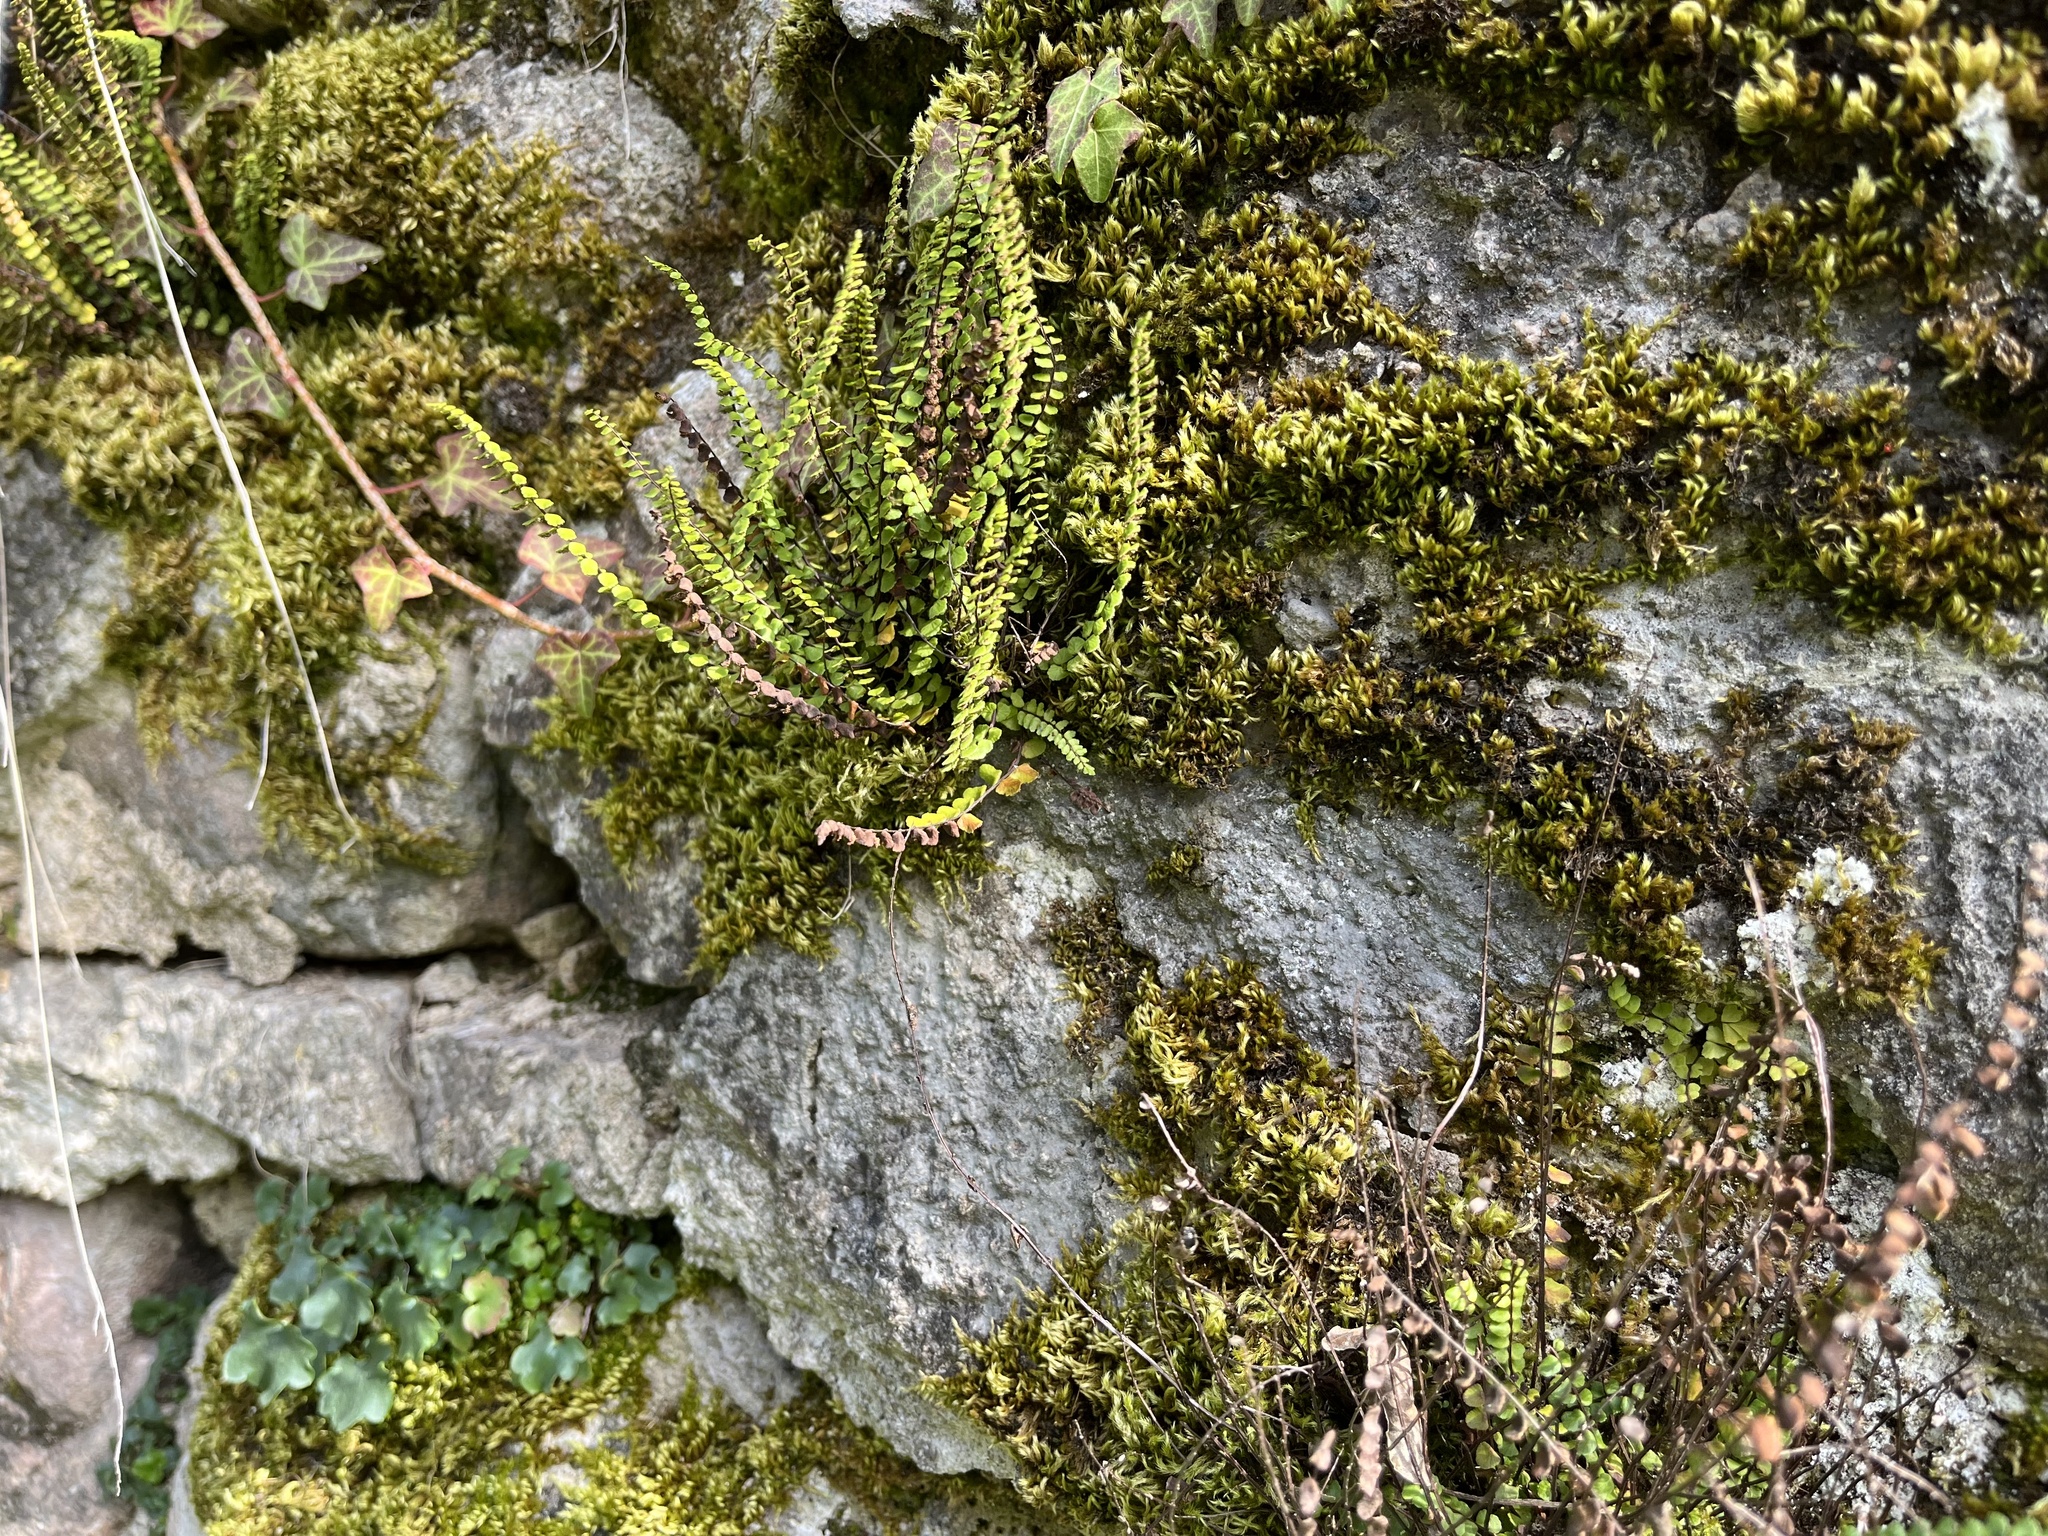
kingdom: Plantae
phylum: Tracheophyta
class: Polypodiopsida
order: Polypodiales
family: Aspleniaceae
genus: Asplenium
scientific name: Asplenium trichomanes
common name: Maidenhair spleenwort
